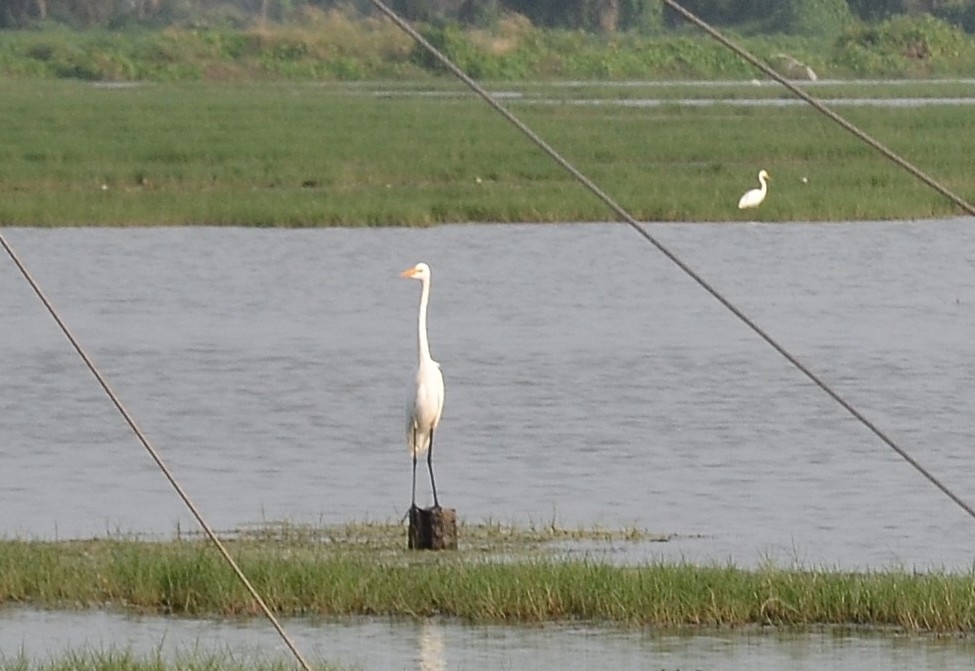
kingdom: Animalia
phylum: Chordata
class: Aves
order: Pelecaniformes
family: Ardeidae
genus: Ardea
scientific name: Ardea alba
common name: Great egret
